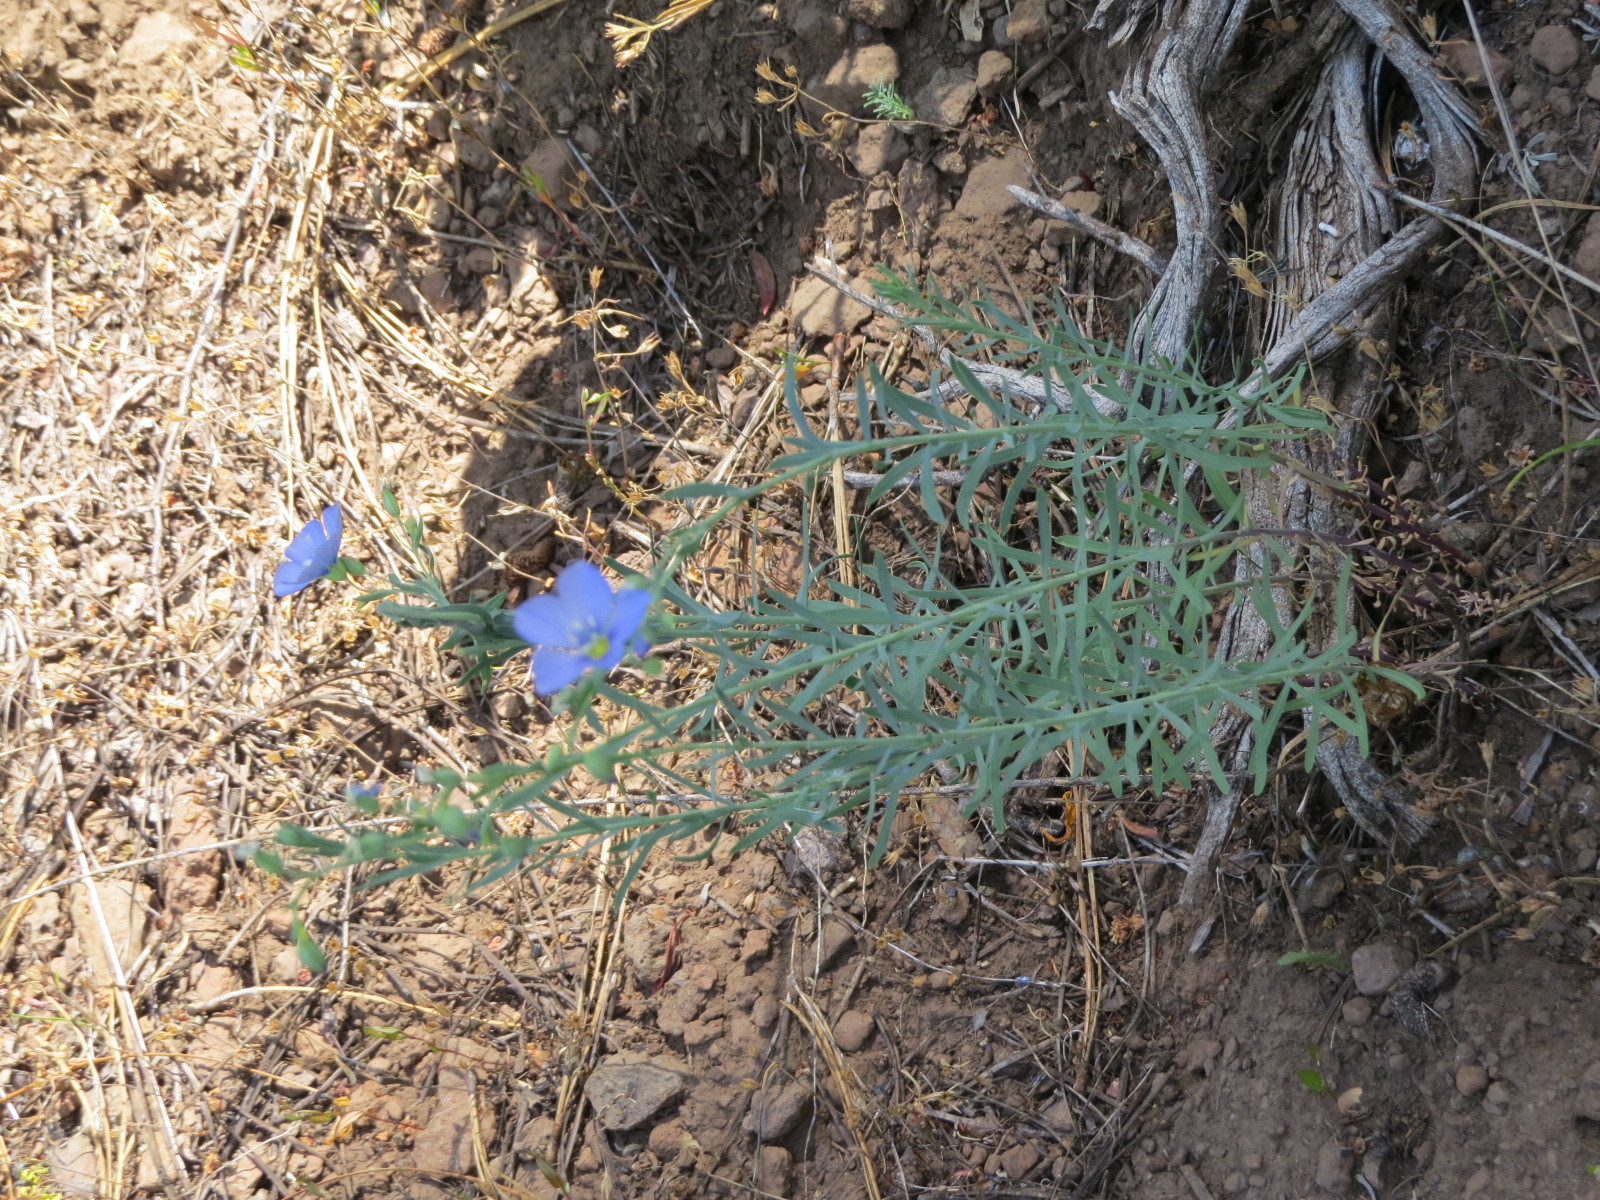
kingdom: Plantae
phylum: Tracheophyta
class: Magnoliopsida
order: Malpighiales
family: Linaceae
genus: Linum
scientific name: Linum lewisii
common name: Prairie flax
